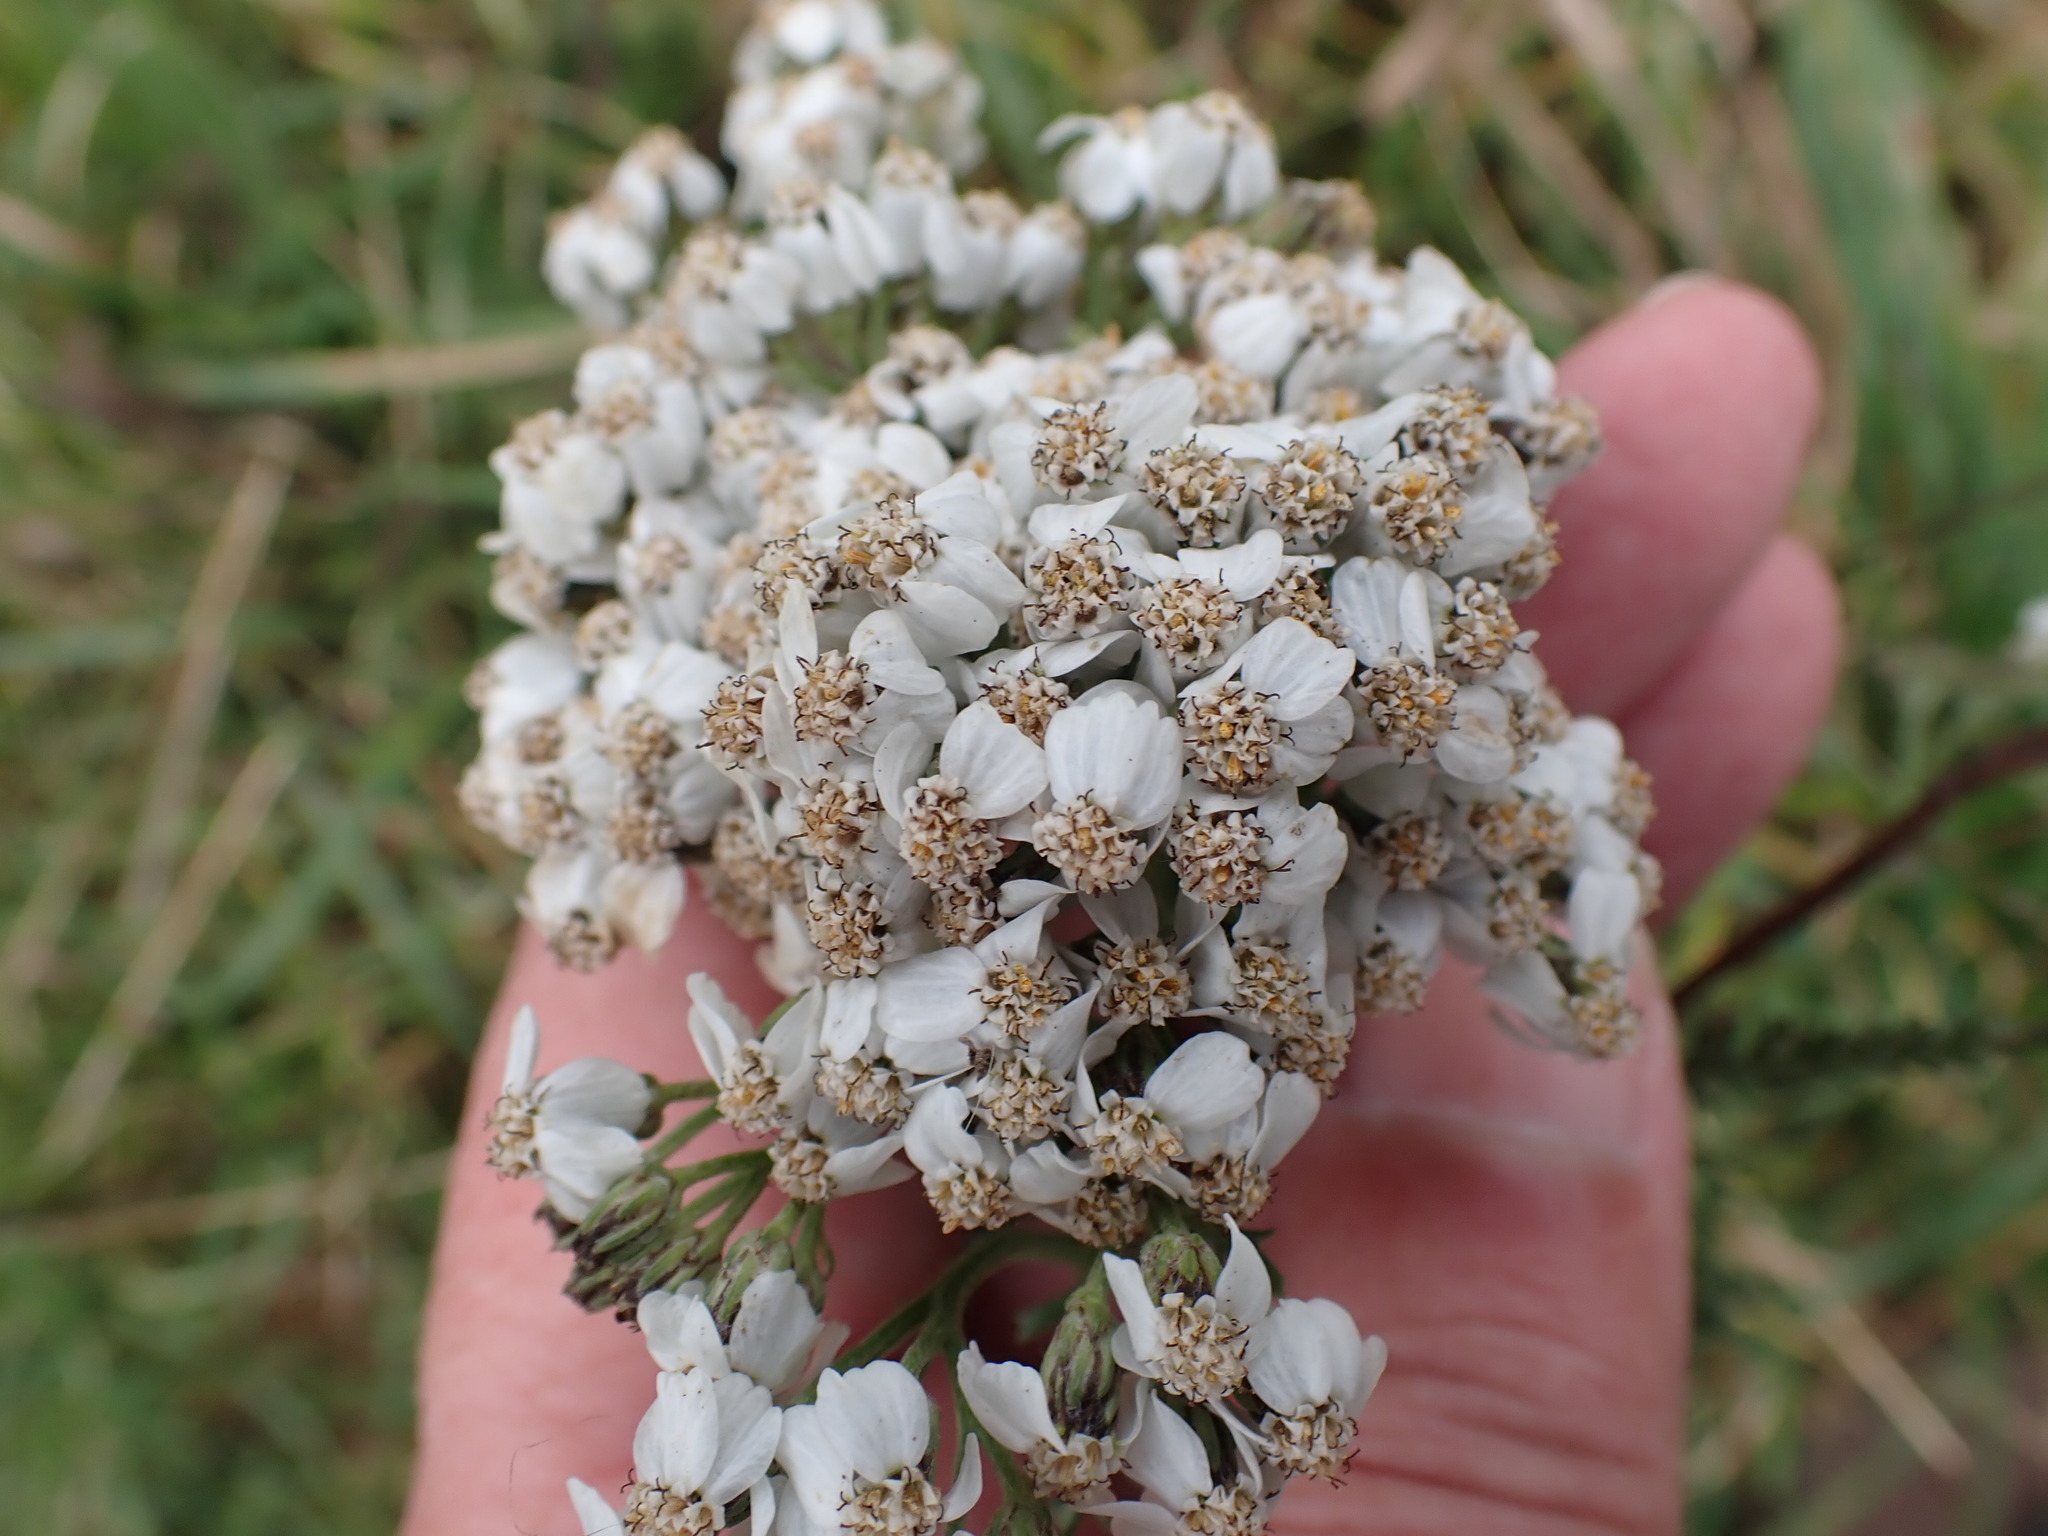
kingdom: Plantae
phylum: Tracheophyta
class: Magnoliopsida
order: Asterales
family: Asteraceae
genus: Achillea
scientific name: Achillea millefolium
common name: Yarrow
